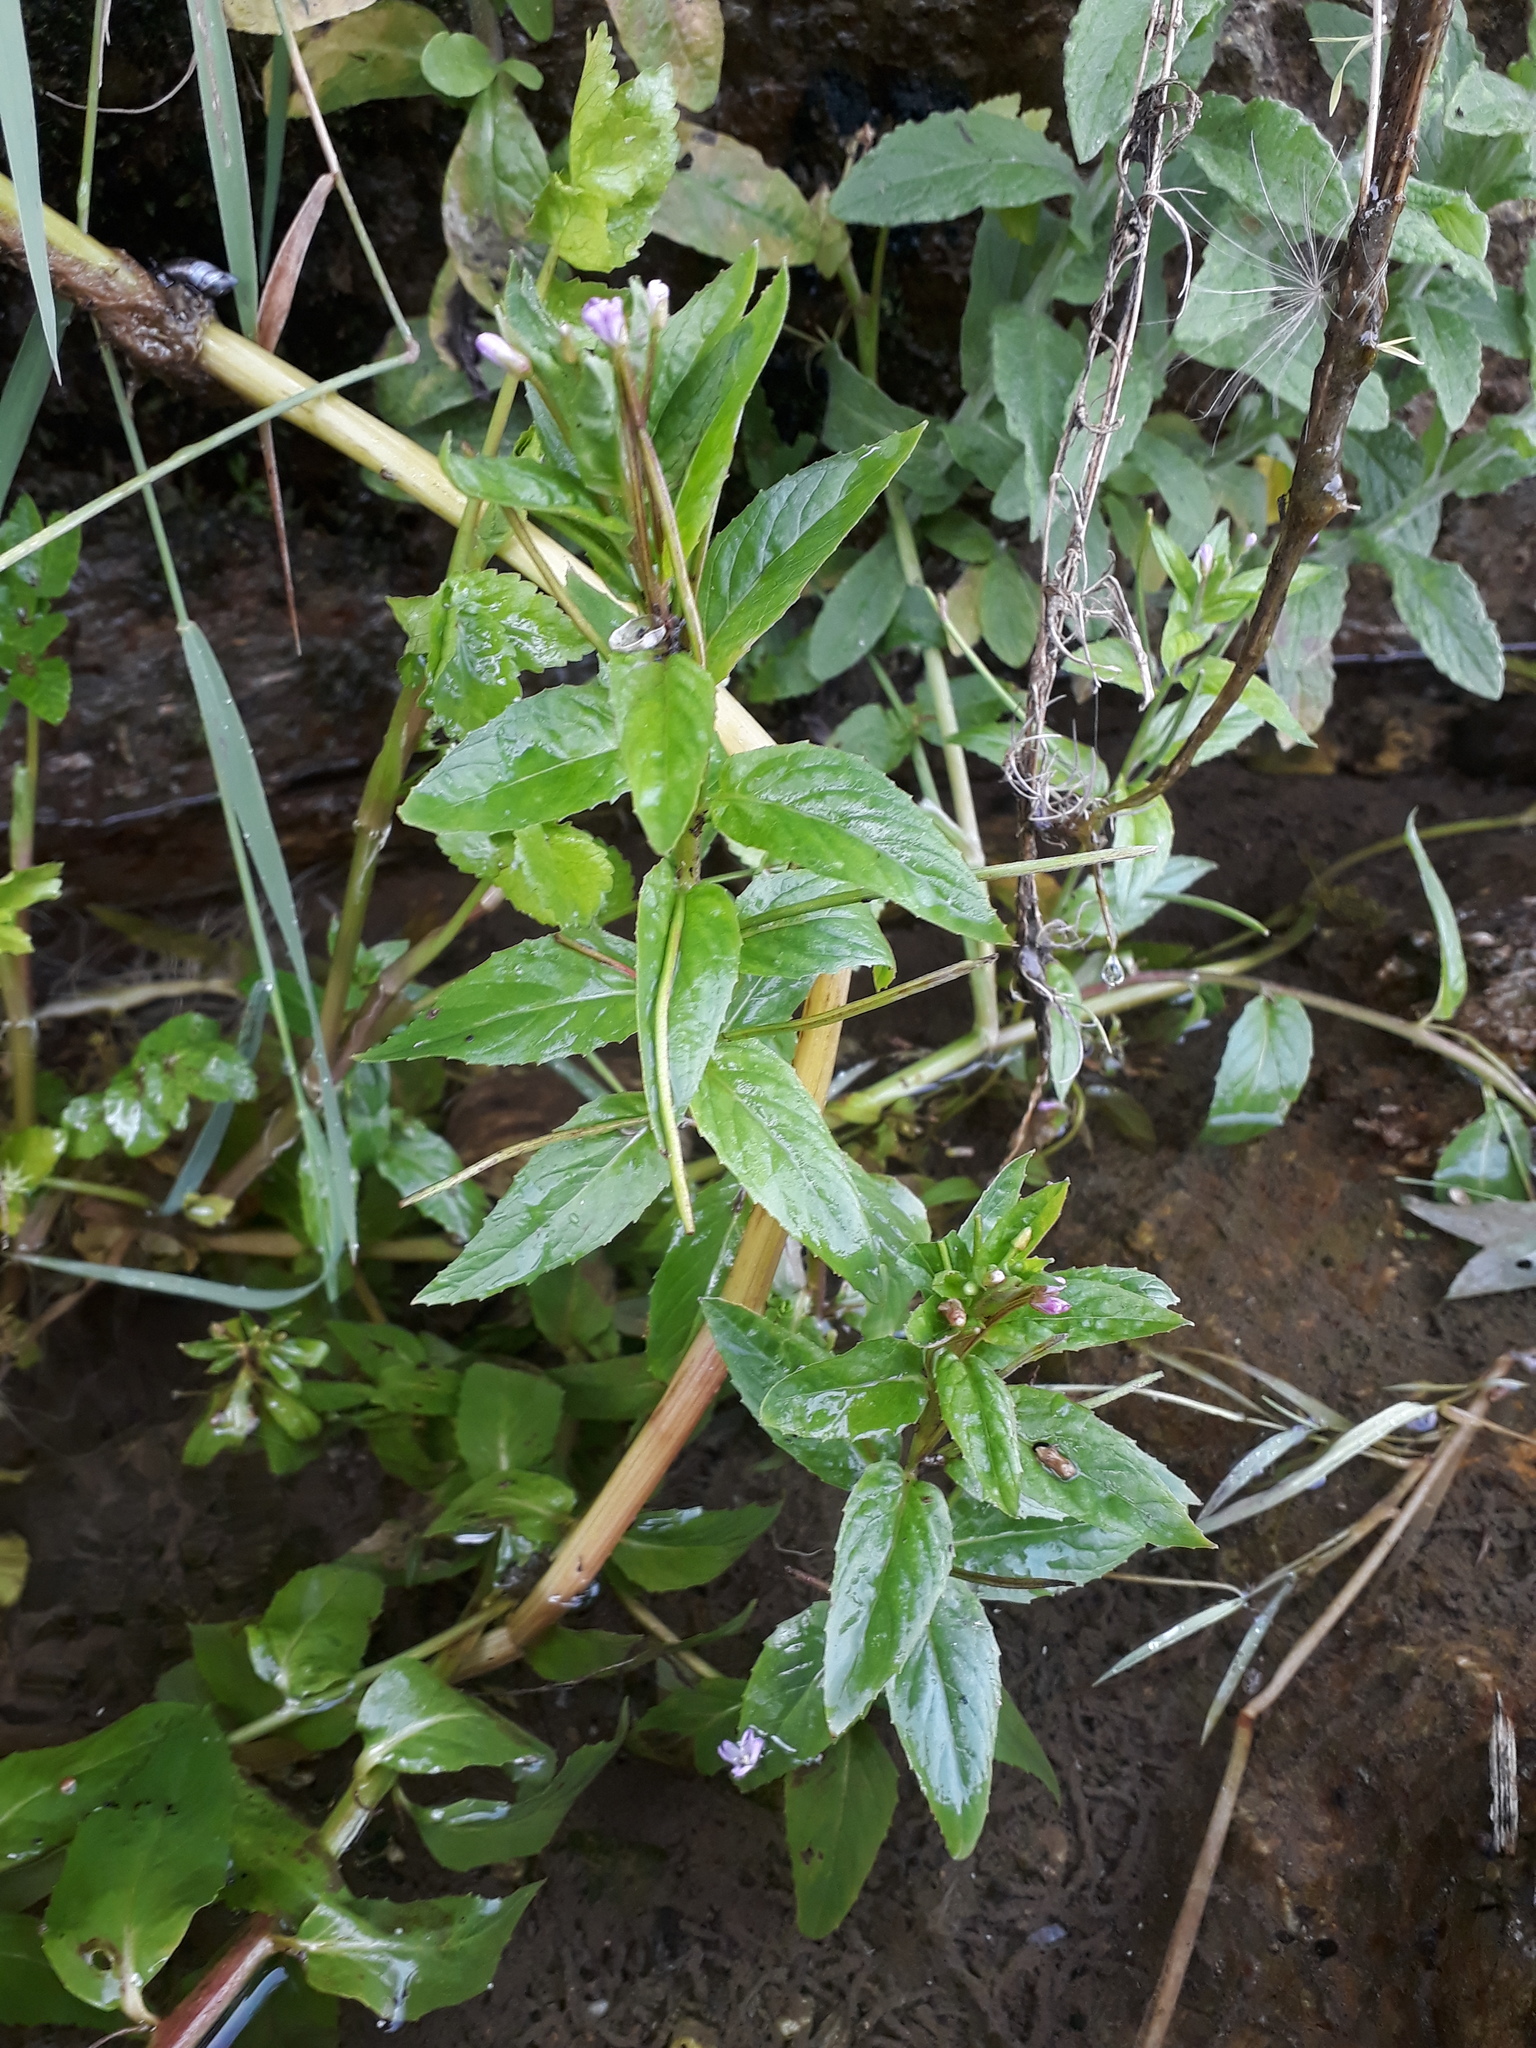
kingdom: Plantae
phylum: Tracheophyta
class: Magnoliopsida
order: Myrtales
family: Onagraceae
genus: Epilobium
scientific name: Epilobium roseum
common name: Pale willowherb
